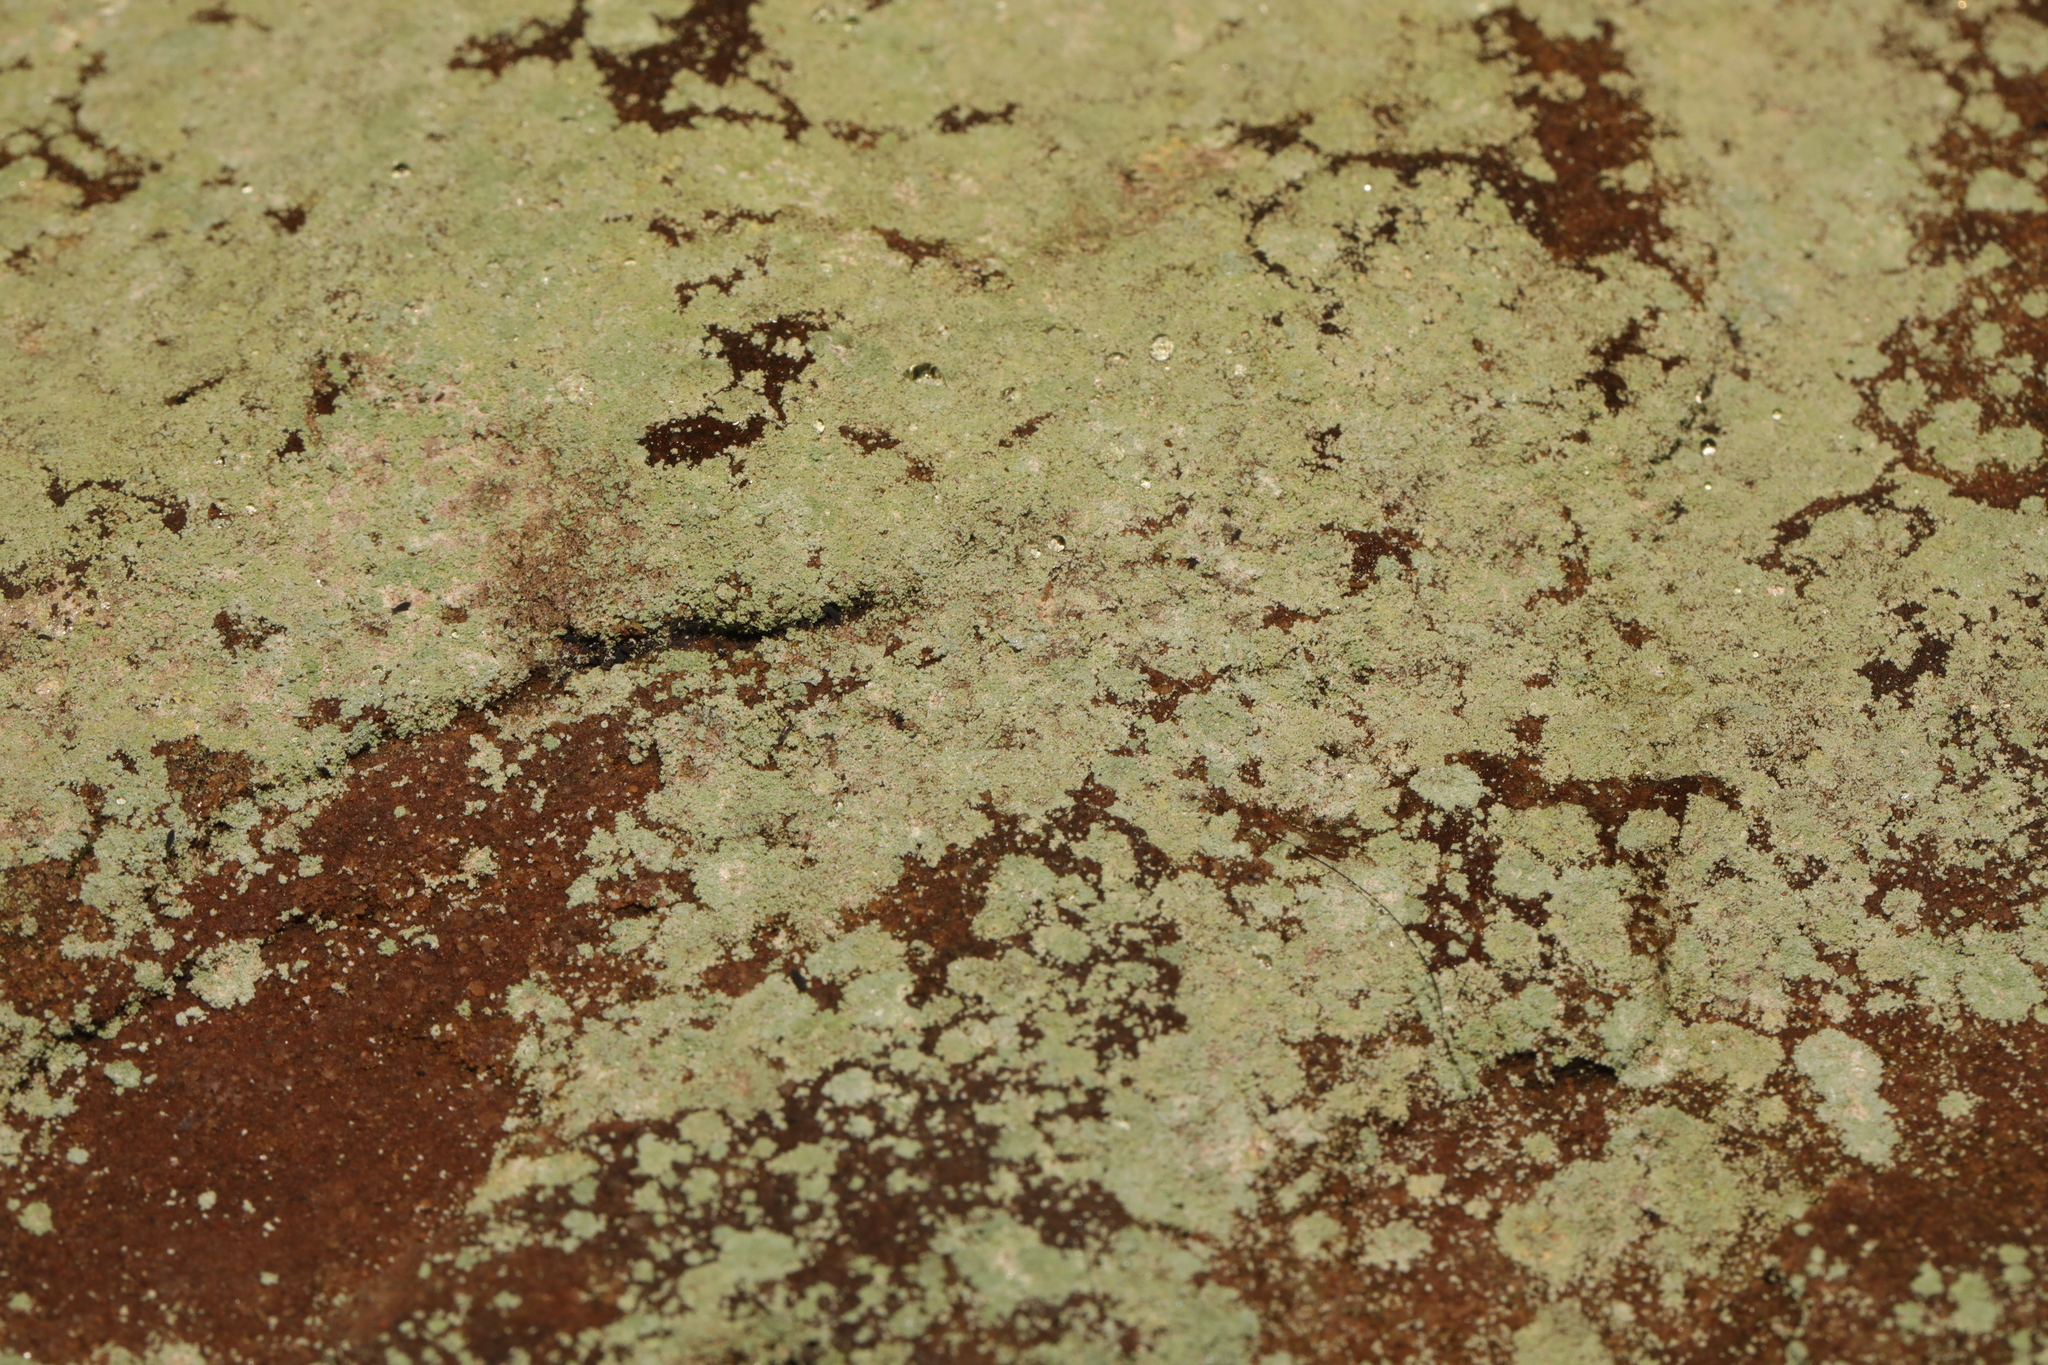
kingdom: Fungi
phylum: Ascomycota
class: Lecanoromycetes
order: Lecanorales
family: Stereocaulaceae
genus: Lepraria
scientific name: Lepraria
